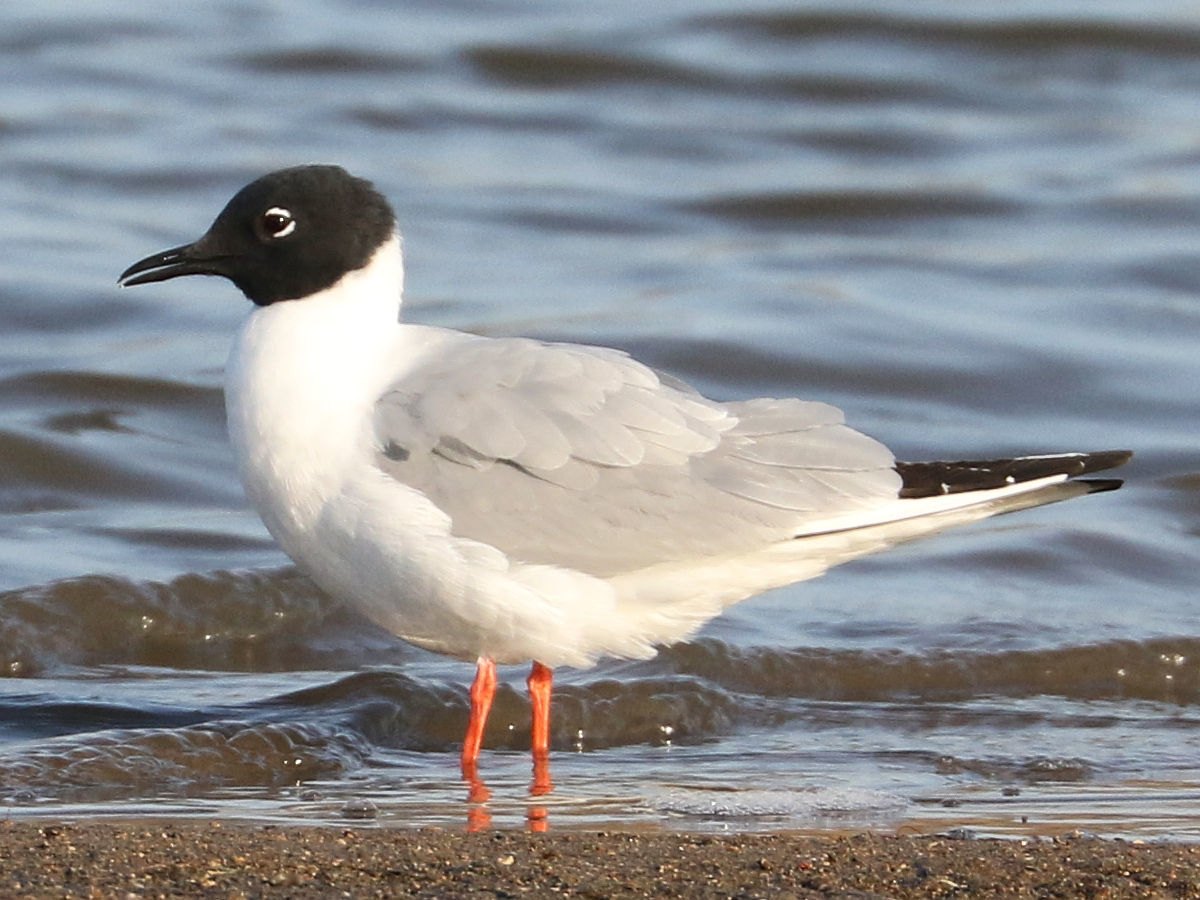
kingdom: Animalia
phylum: Chordata
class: Aves
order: Charadriiformes
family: Laridae
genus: Chroicocephalus
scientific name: Chroicocephalus philadelphia
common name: Bonaparte's gull
